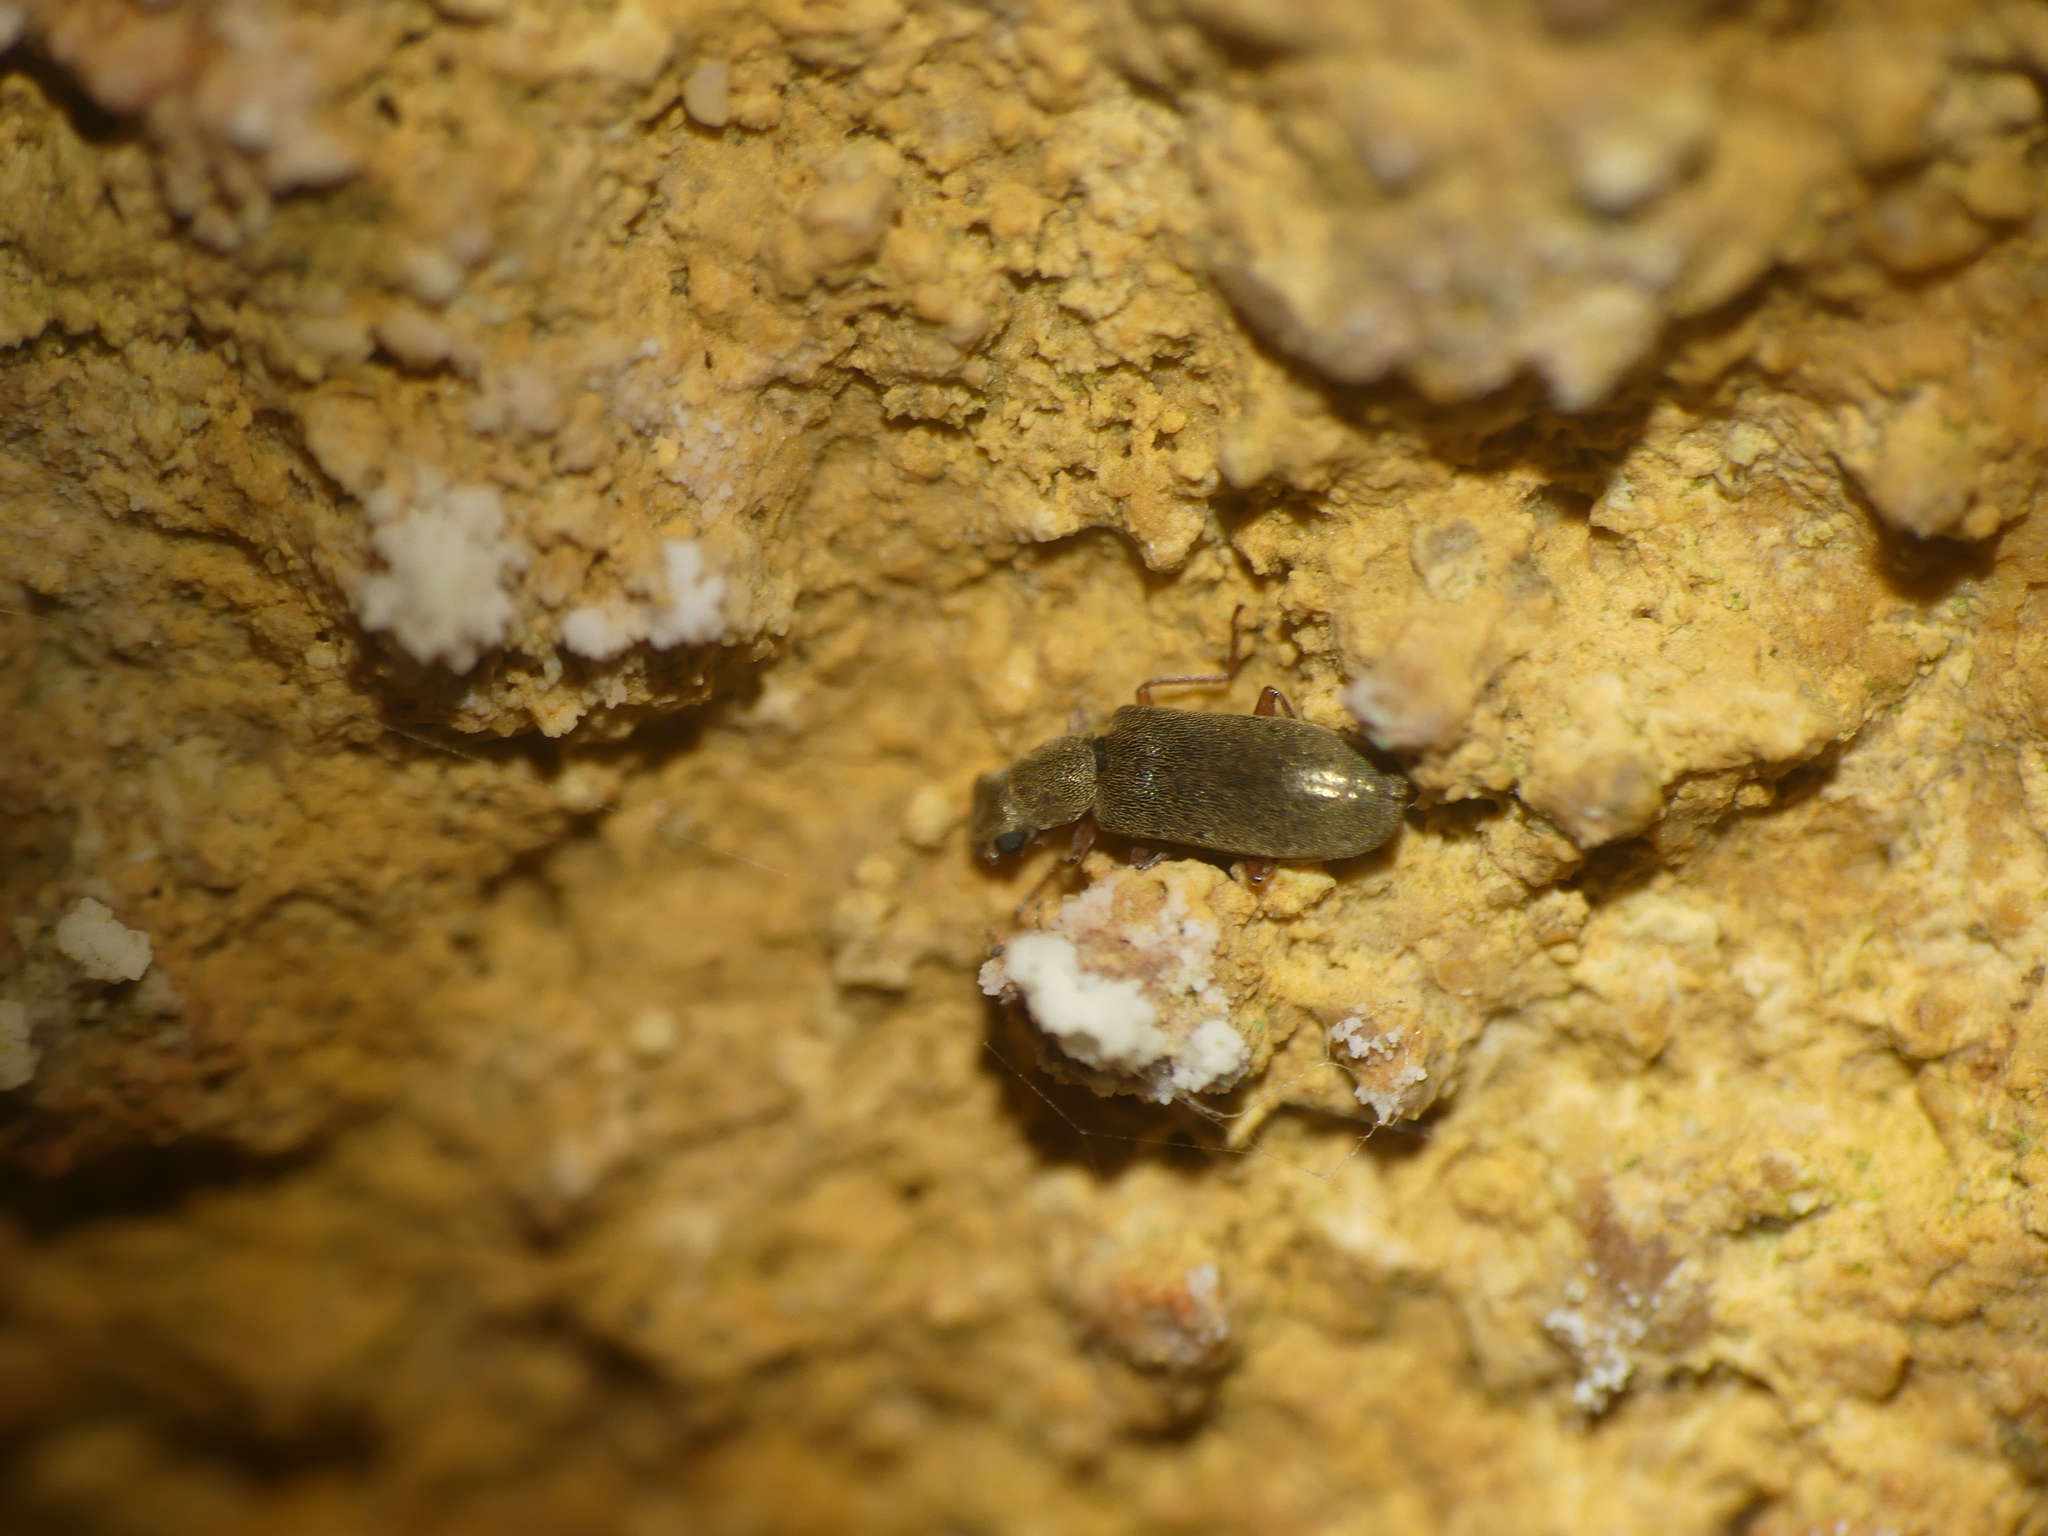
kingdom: Animalia
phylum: Arthropoda
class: Insecta
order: Coleoptera
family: Dasytidae
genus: Danacea
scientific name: Danacea
